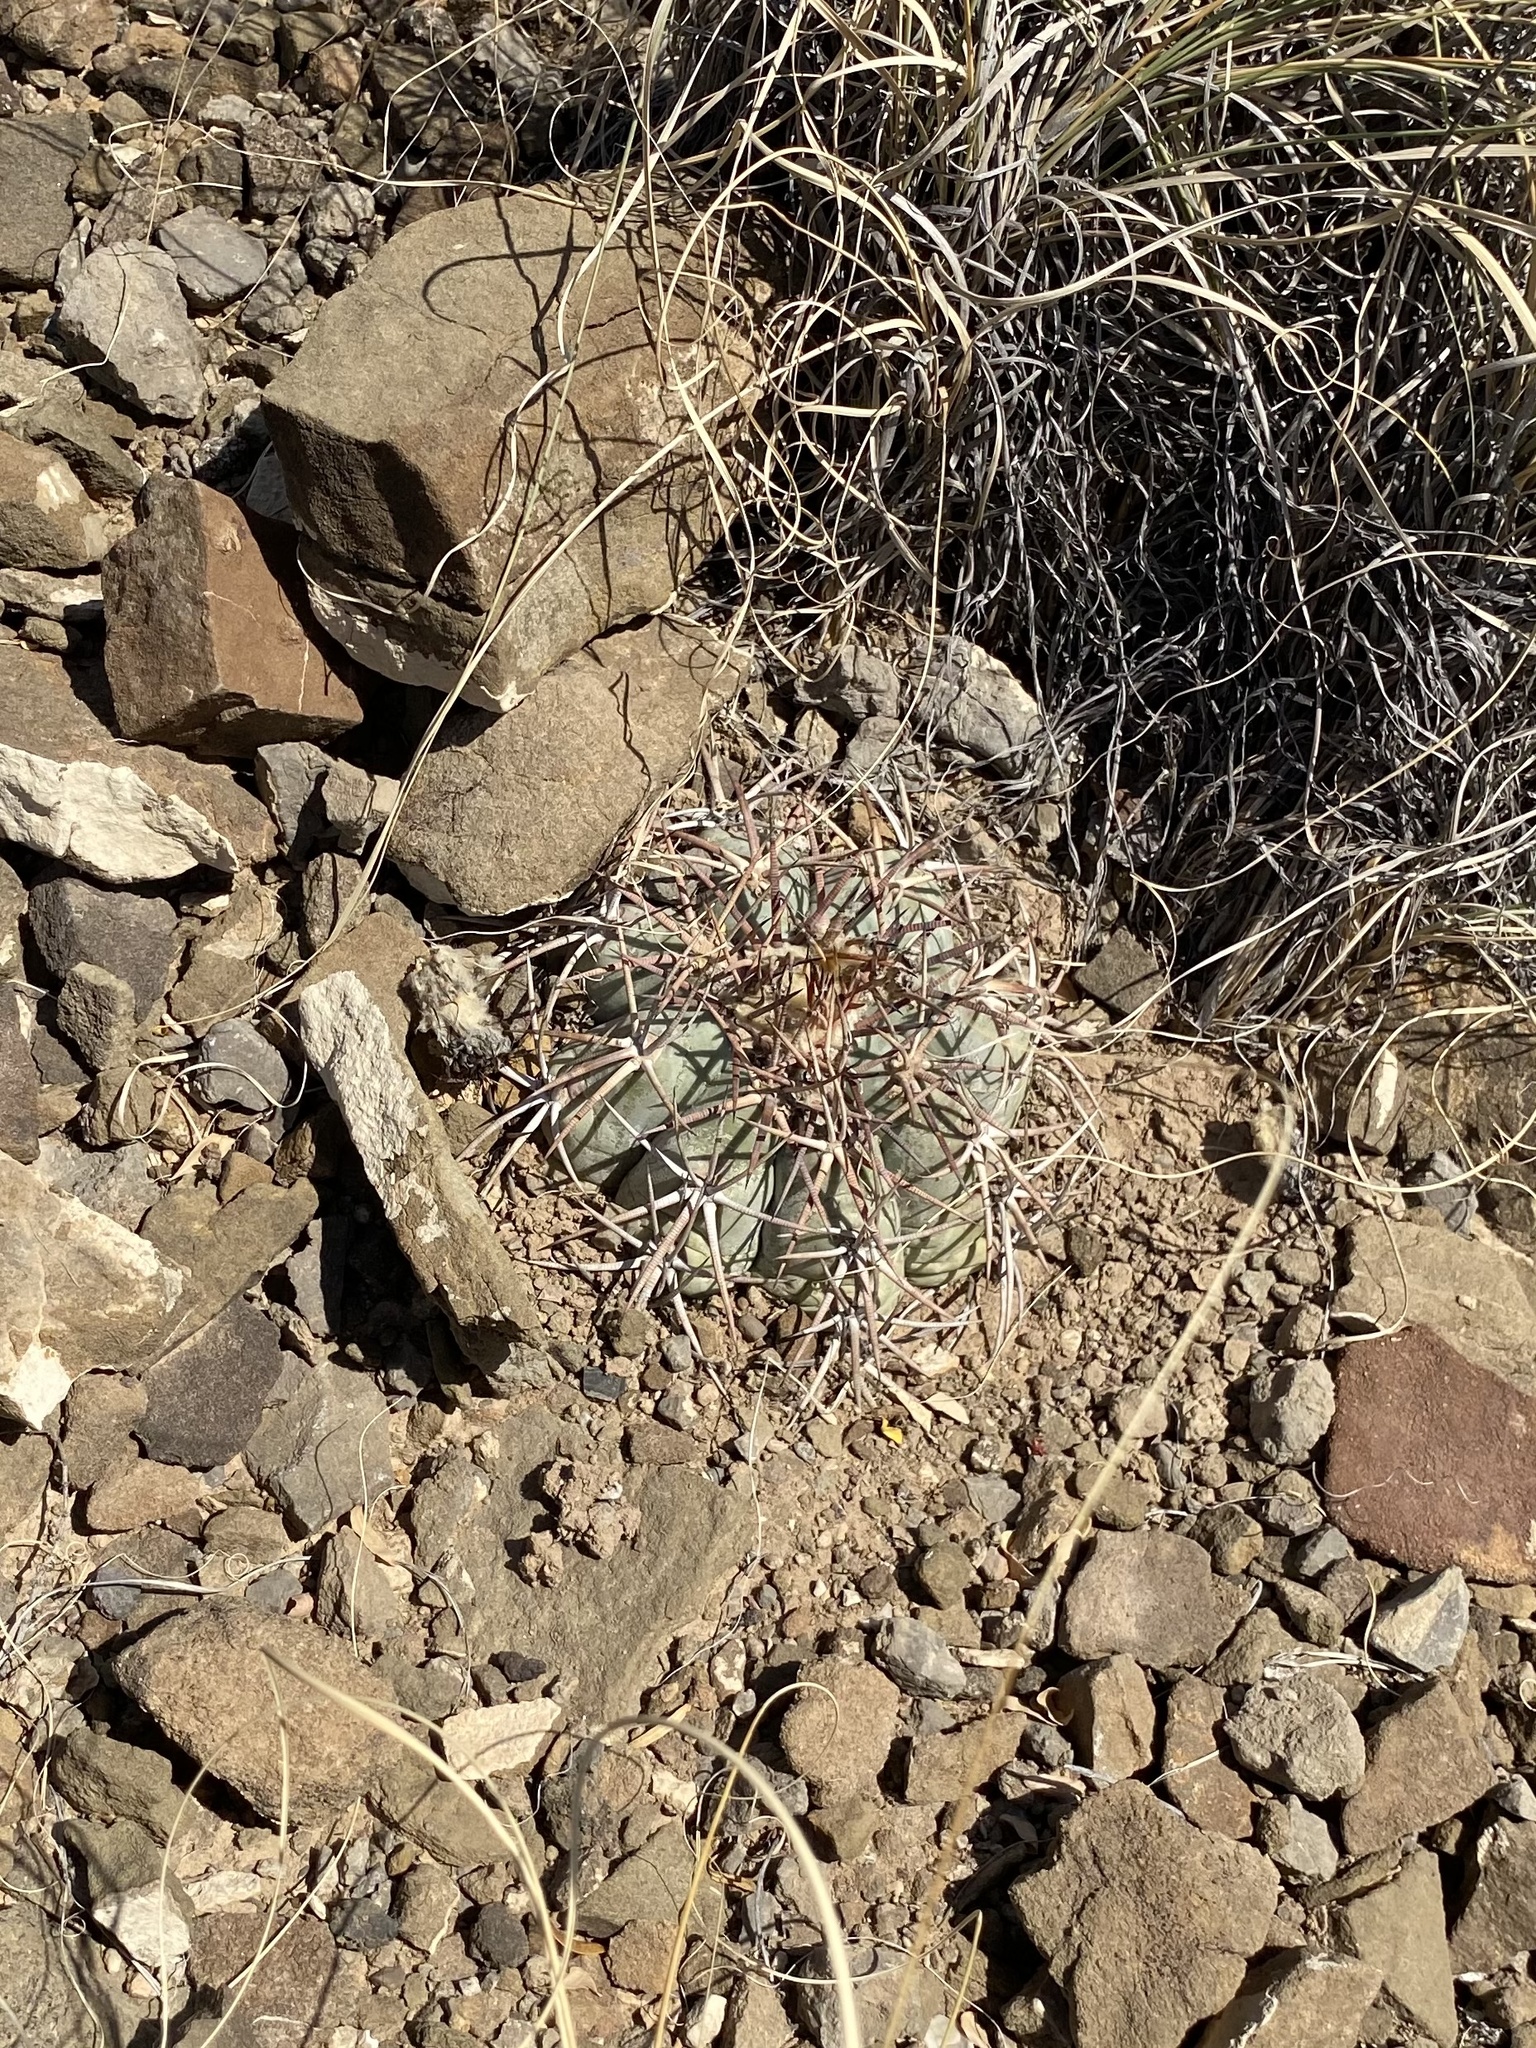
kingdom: Plantae
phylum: Tracheophyta
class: Magnoliopsida
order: Caryophyllales
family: Cactaceae
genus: Echinocactus
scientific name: Echinocactus horizonthalonius
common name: Devilshead
